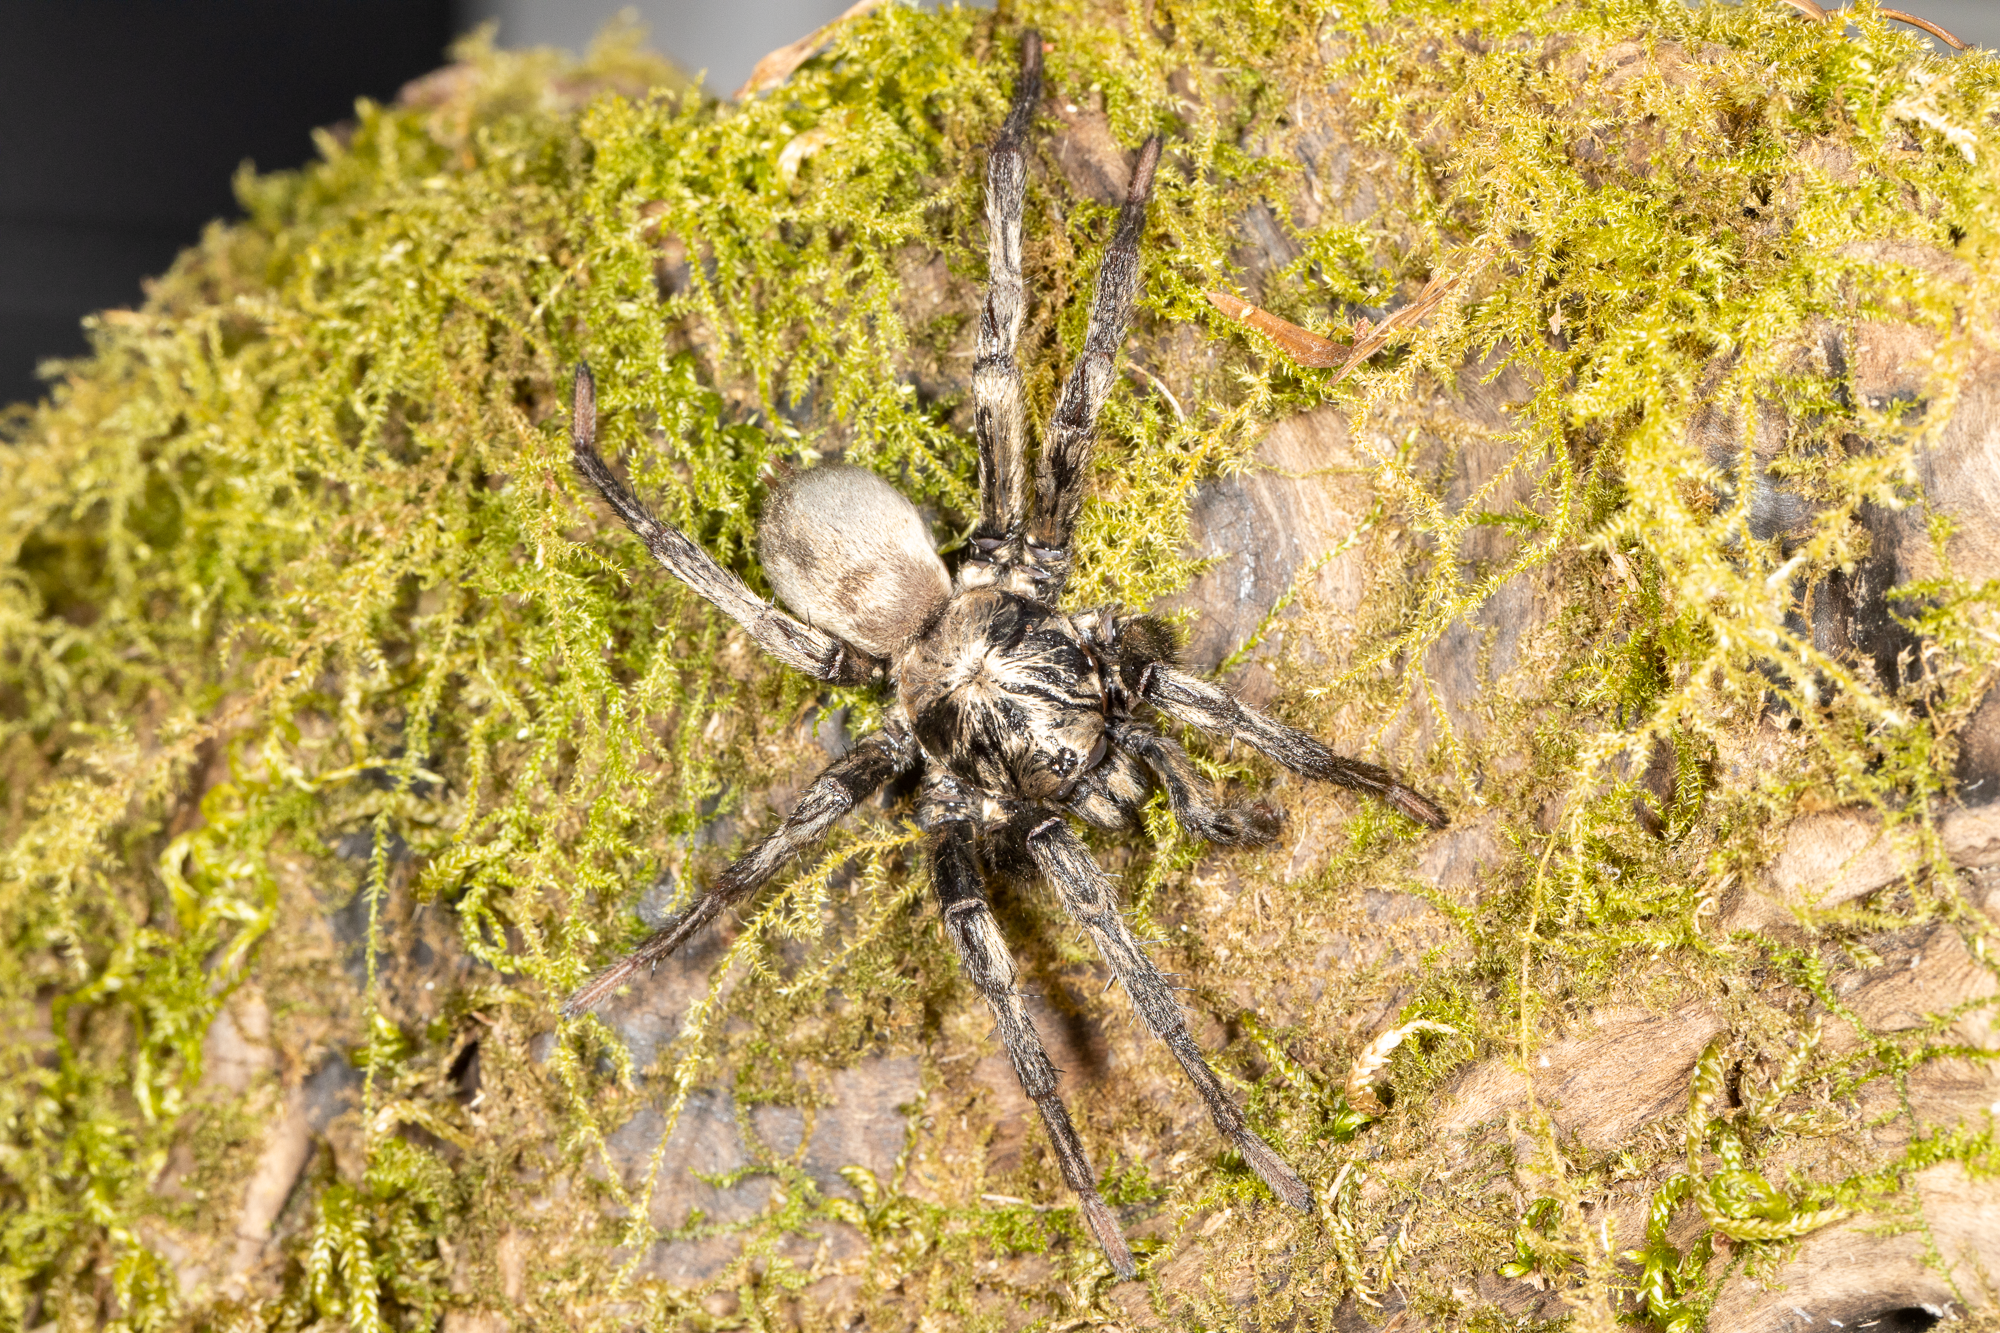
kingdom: Animalia
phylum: Arthropoda
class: Arachnida
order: Araneae
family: Nemesiidae
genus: Calisoga
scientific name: Calisoga longitarsis
